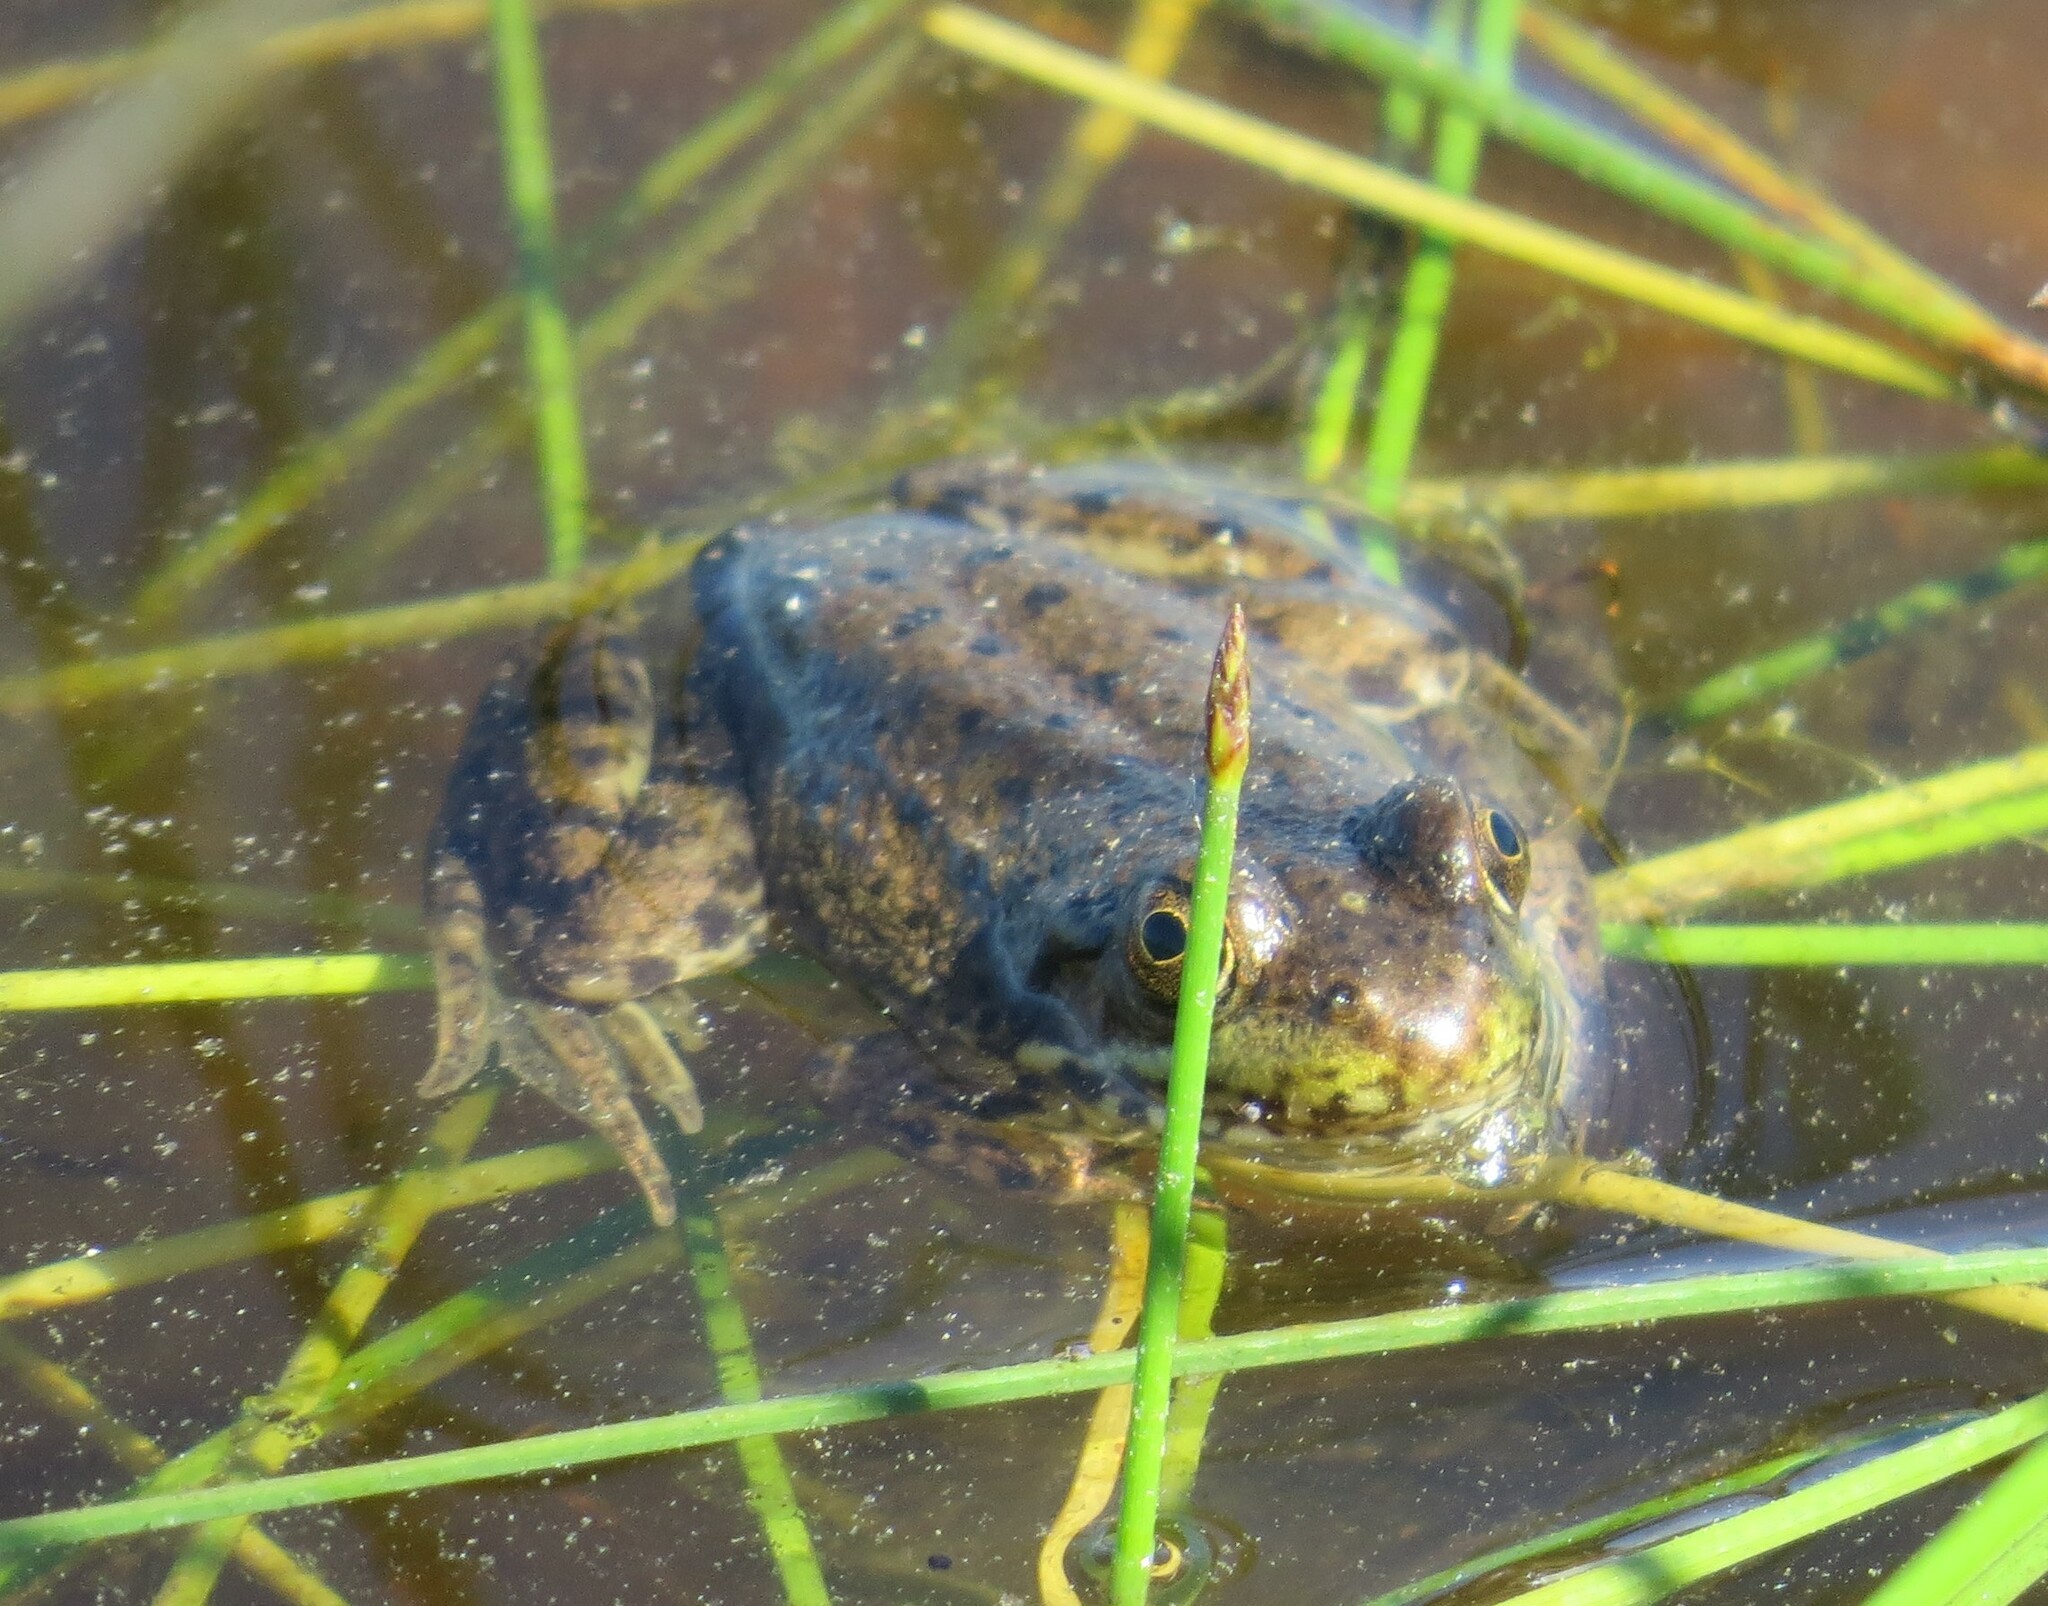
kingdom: Animalia
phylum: Chordata
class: Amphibia
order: Anura
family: Ranidae
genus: Lithobates
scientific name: Lithobates clamitans
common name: Green frog
